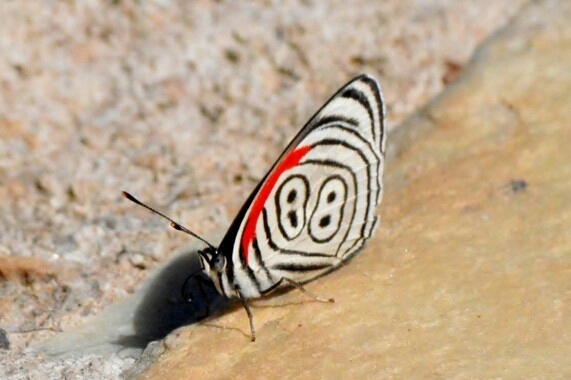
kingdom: Animalia
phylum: Arthropoda
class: Insecta
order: Lepidoptera
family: Nymphalidae
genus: Diaethria
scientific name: Diaethria eluina
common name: Eluina eighty-eight
